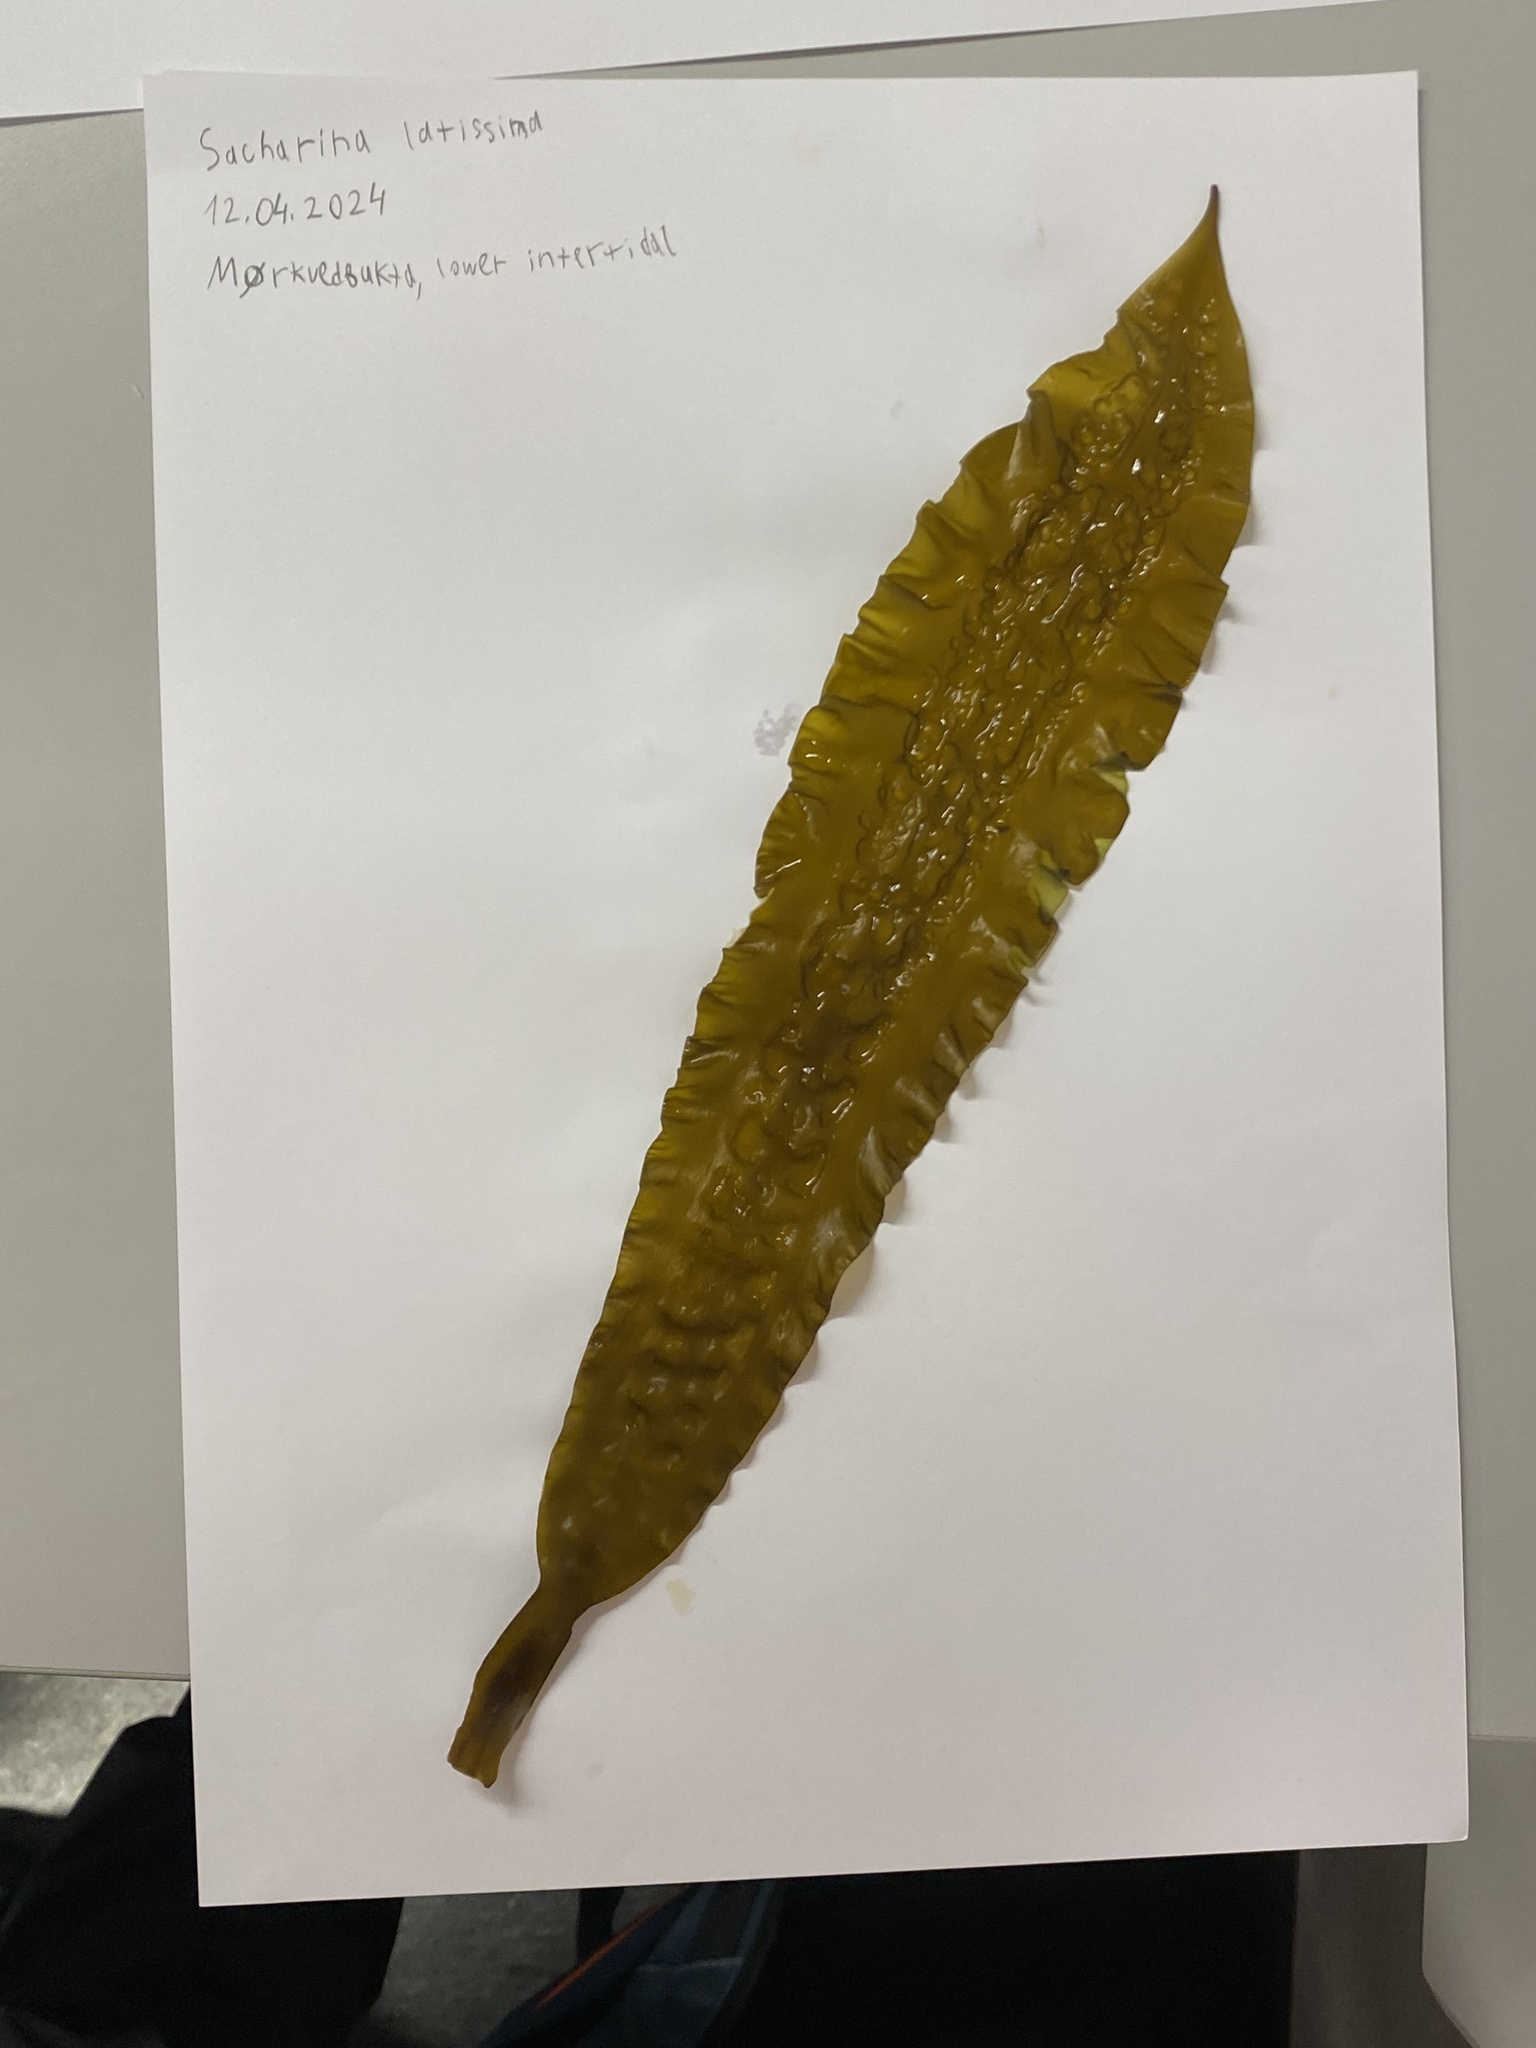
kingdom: Chromista
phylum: Ochrophyta
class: Phaeophyceae
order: Laminariales
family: Laminariaceae
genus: Saccharina
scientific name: Saccharina latissima
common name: Poor man's weather glass
